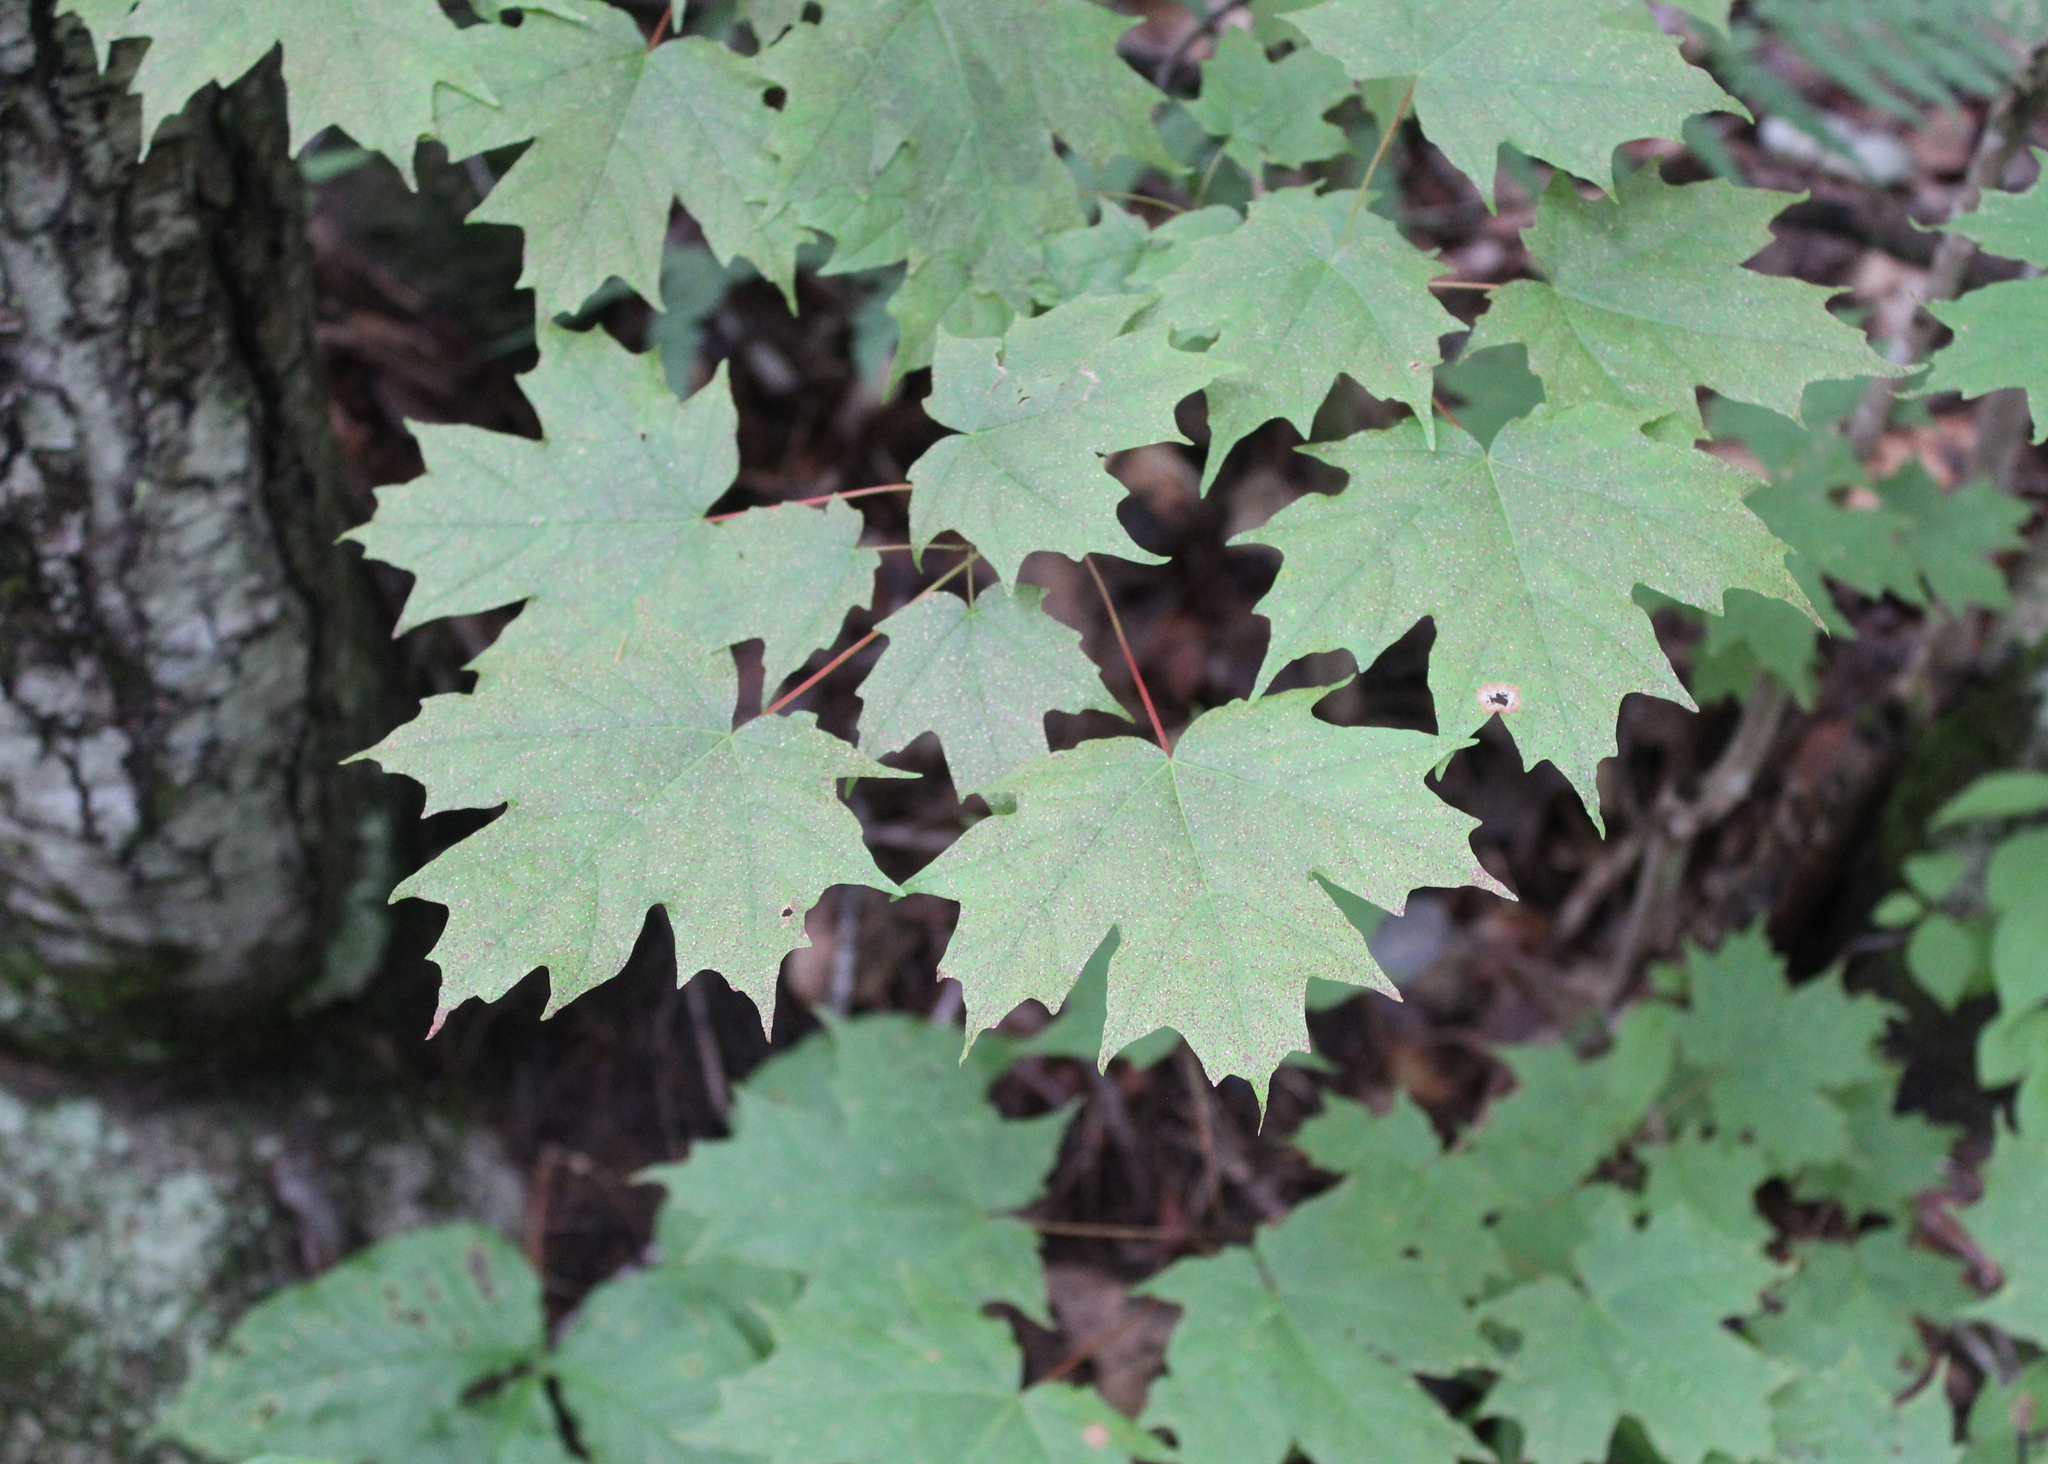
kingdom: Plantae
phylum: Tracheophyta
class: Magnoliopsida
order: Sapindales
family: Sapindaceae
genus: Acer
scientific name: Acer saccharum
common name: Sugar maple
